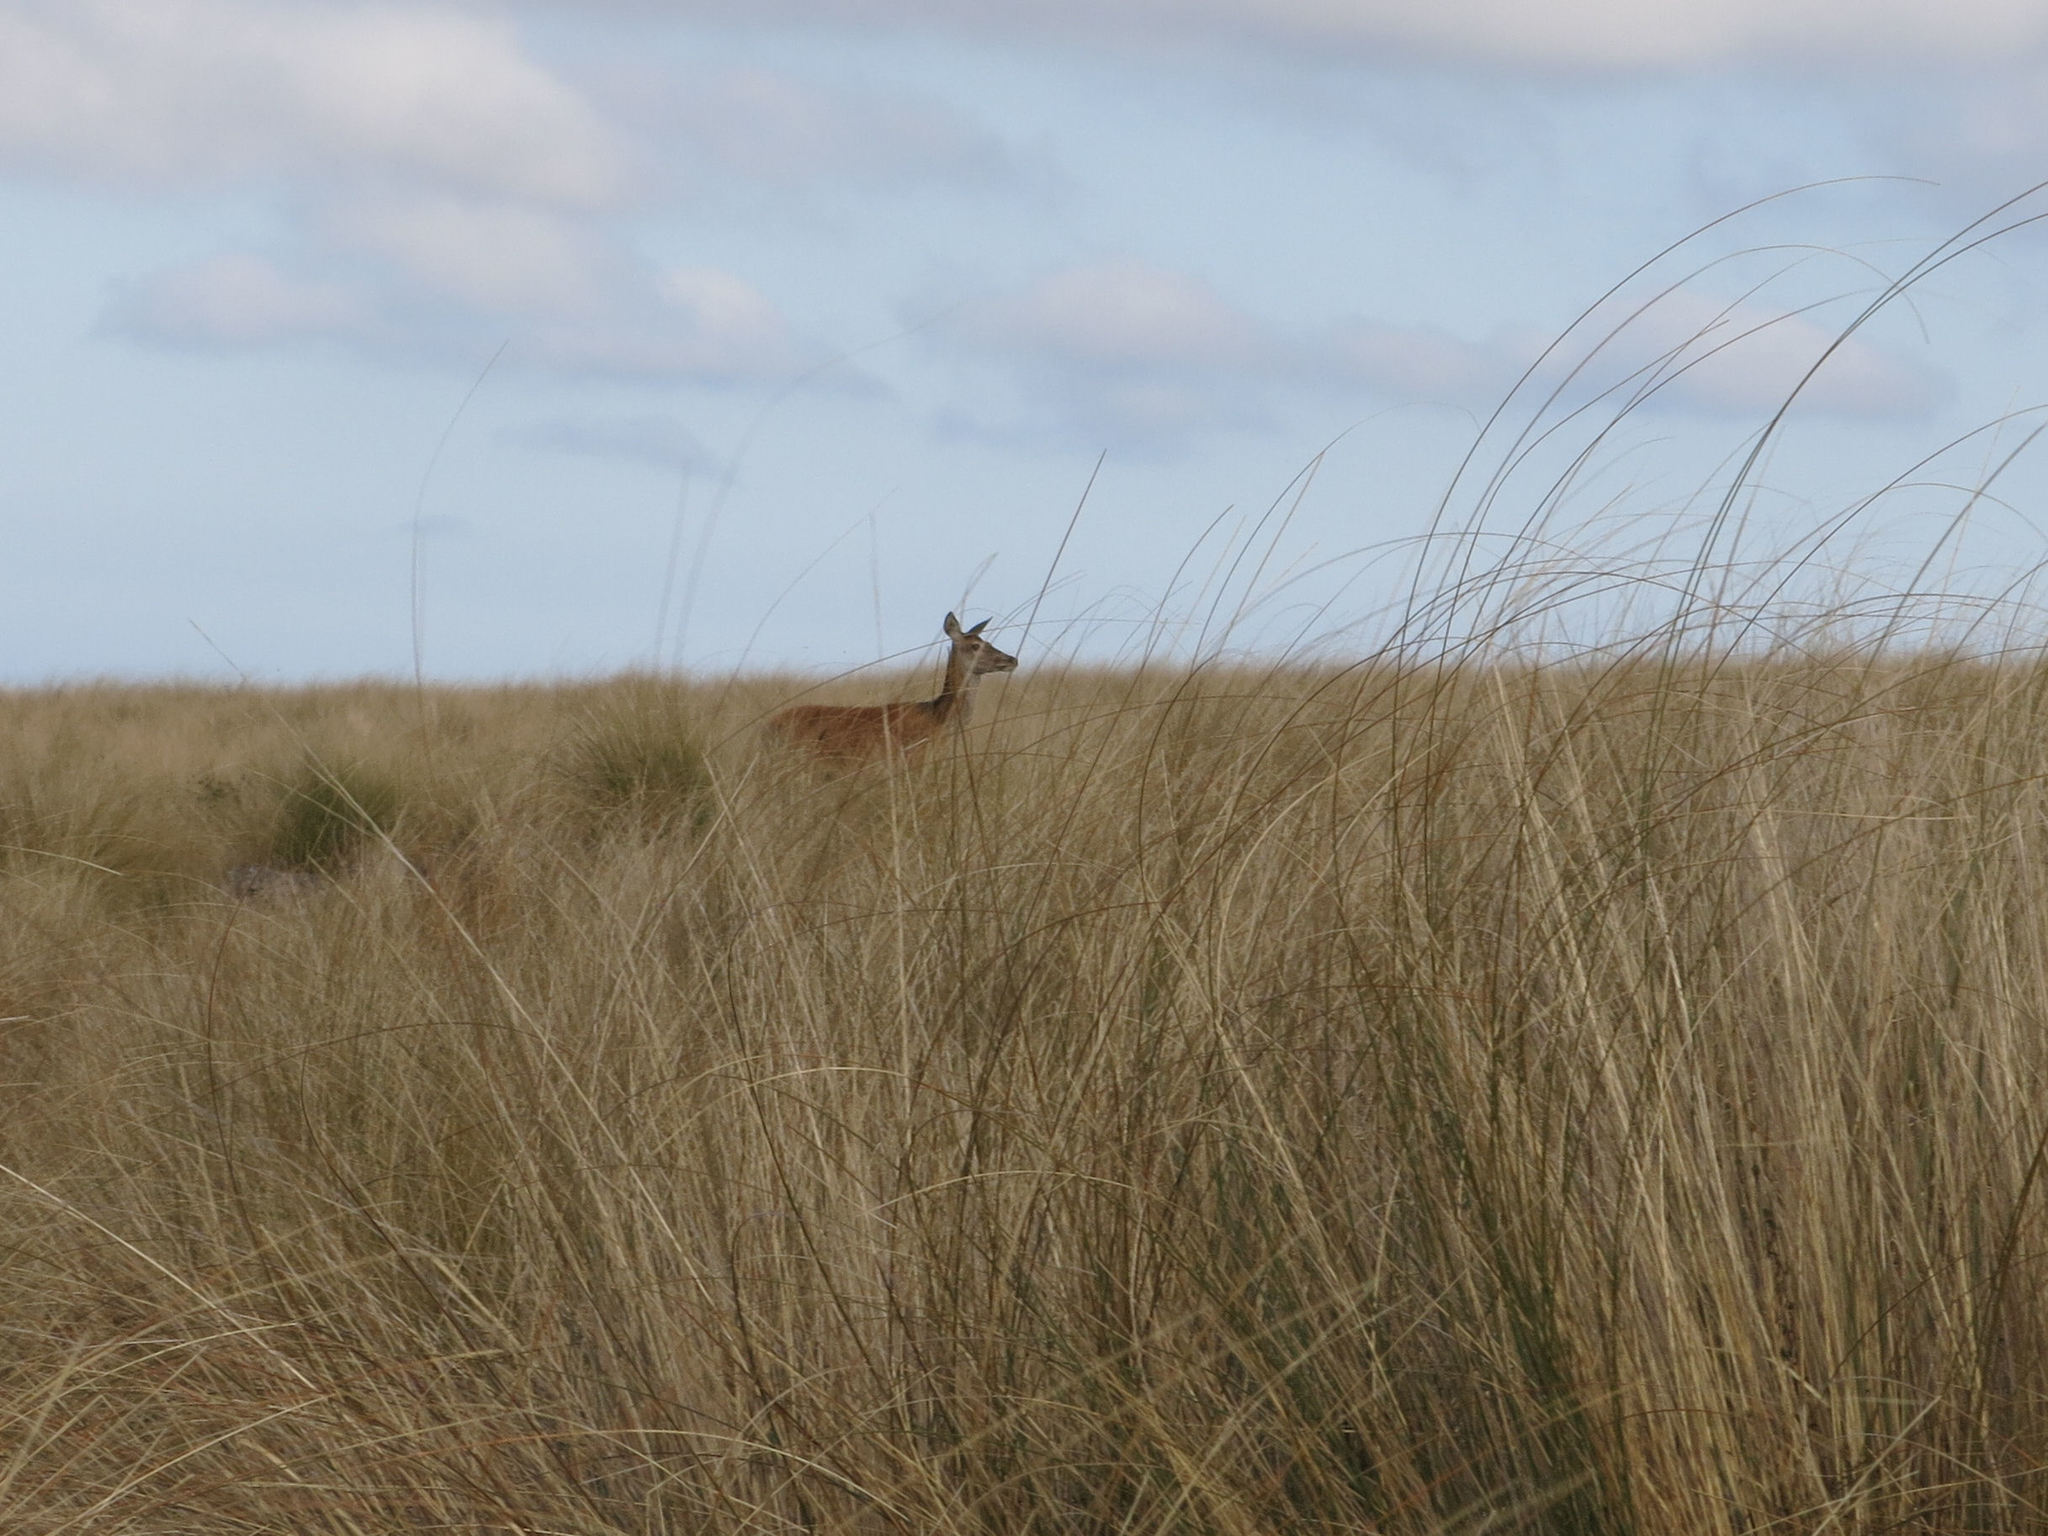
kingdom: Animalia
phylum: Chordata
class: Mammalia
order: Artiodactyla
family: Cervidae
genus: Cervus
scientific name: Cervus elaphus
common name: Red deer
